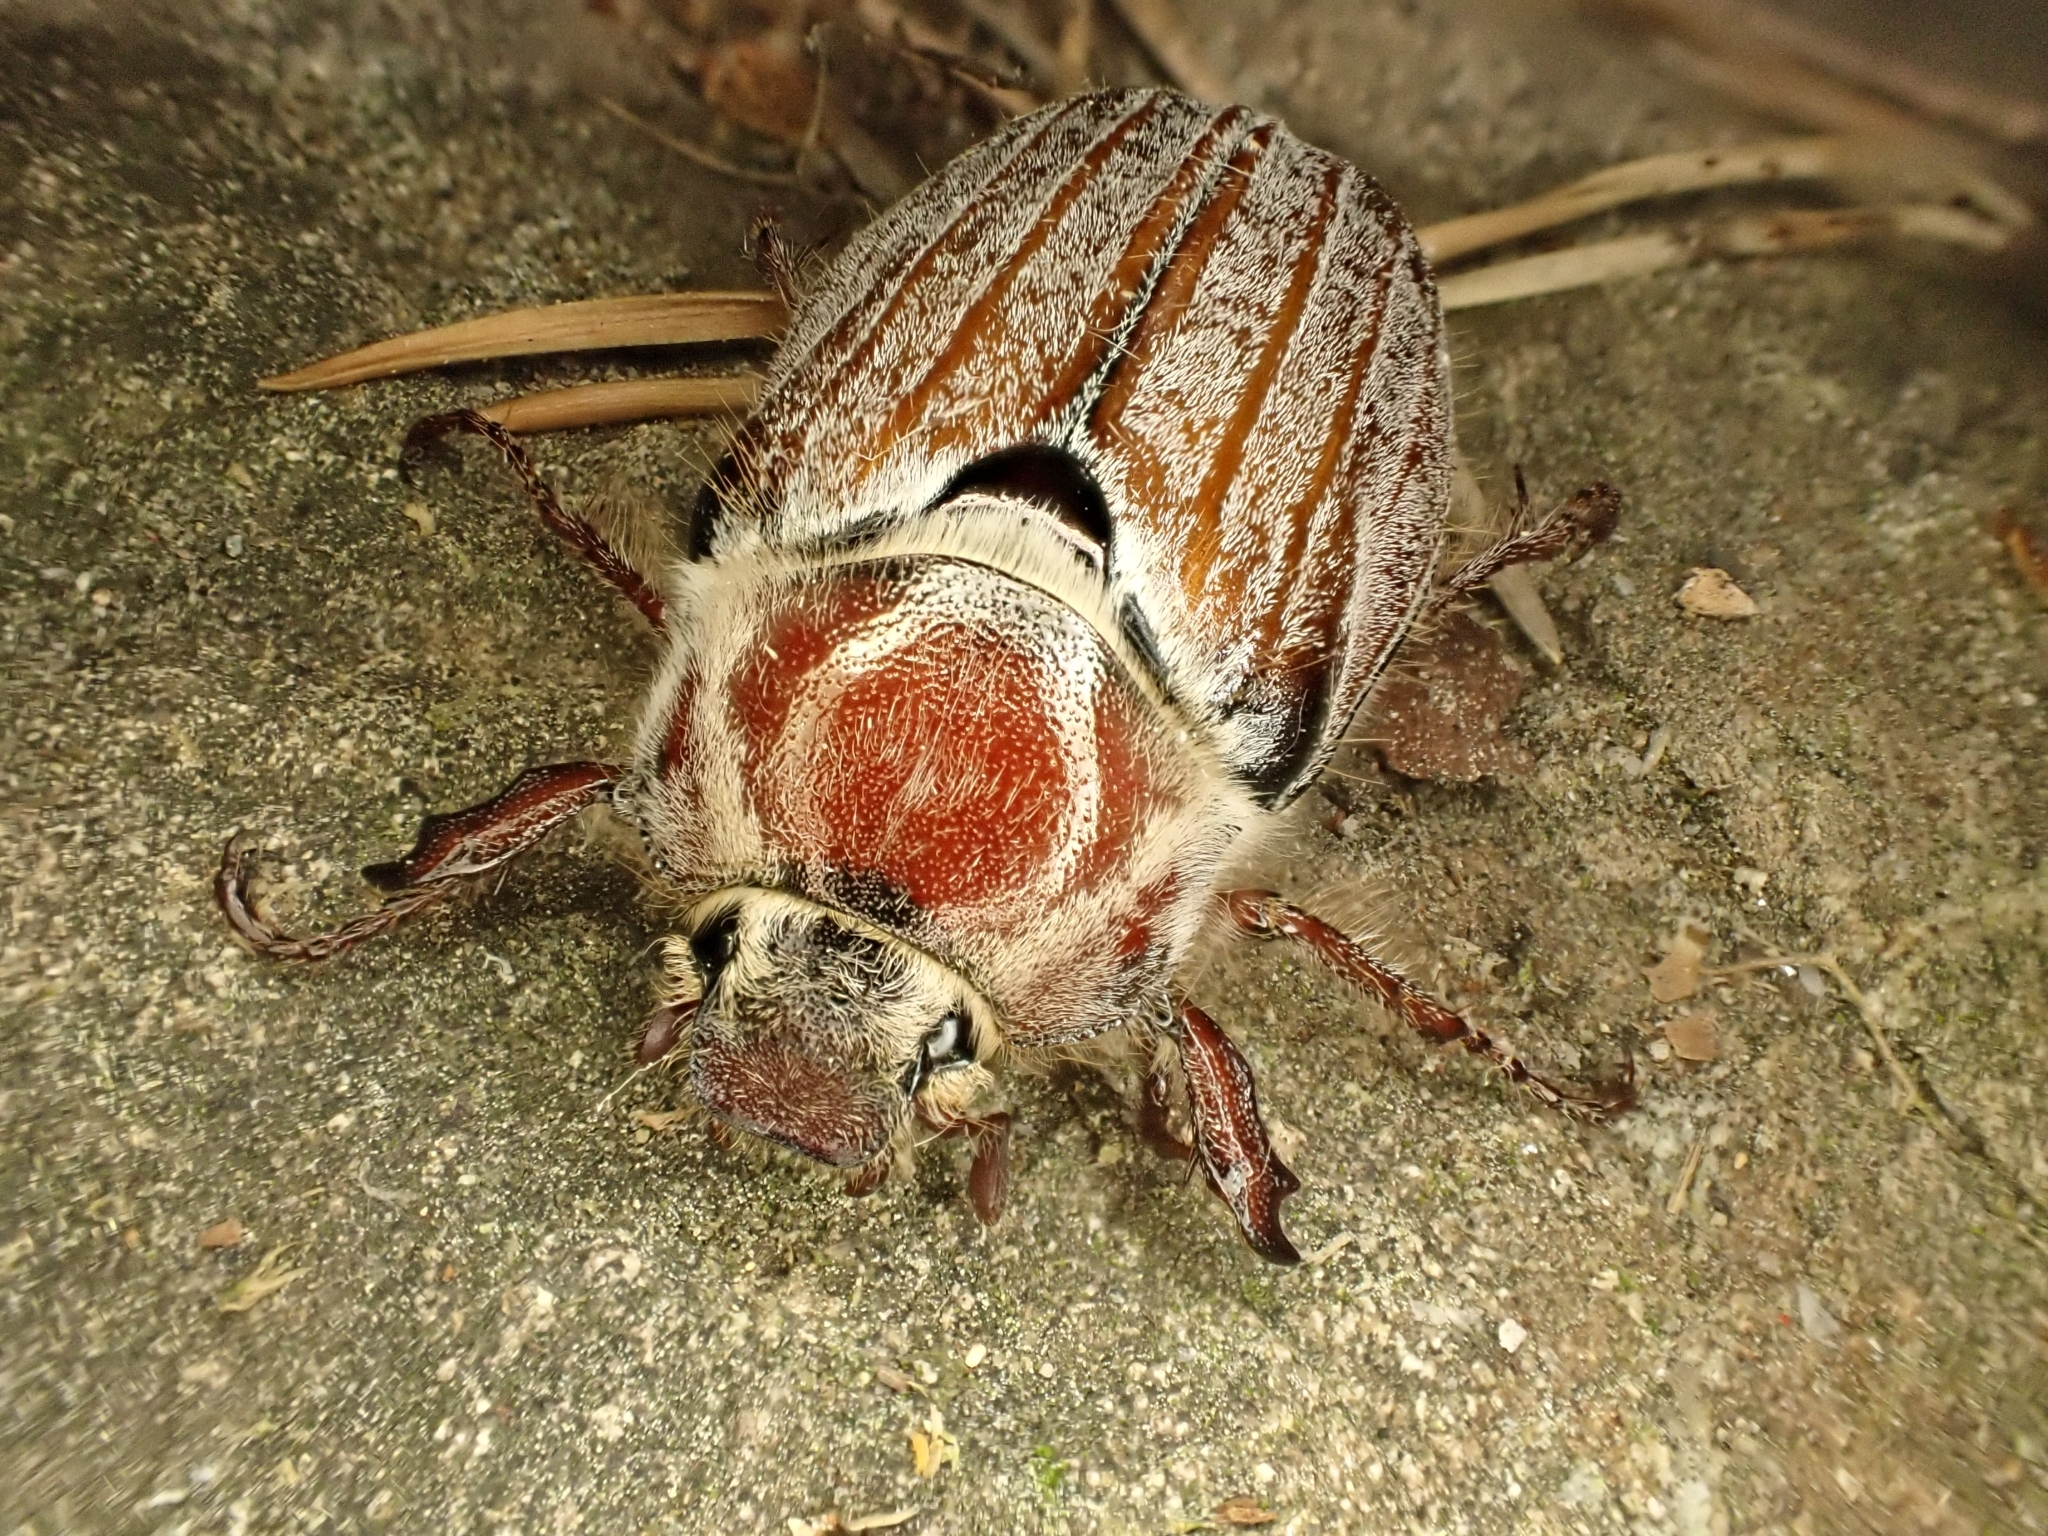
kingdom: Animalia
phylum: Arthropoda
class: Insecta
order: Coleoptera
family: Scarabaeidae
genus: Melolontha
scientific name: Melolontha hippocastani
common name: Chestnut cockchafer
